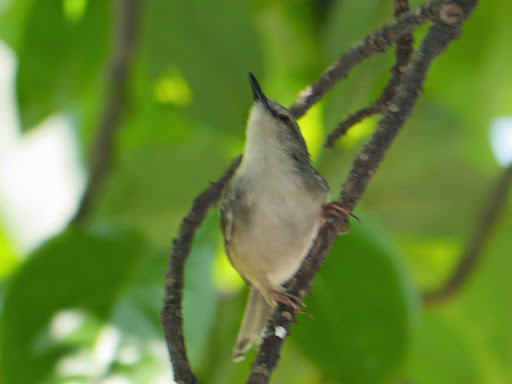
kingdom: Animalia
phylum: Chordata
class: Aves
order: Passeriformes
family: Cisticolidae
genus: Prinia
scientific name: Prinia subflava
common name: Tawny-flanked prinia
